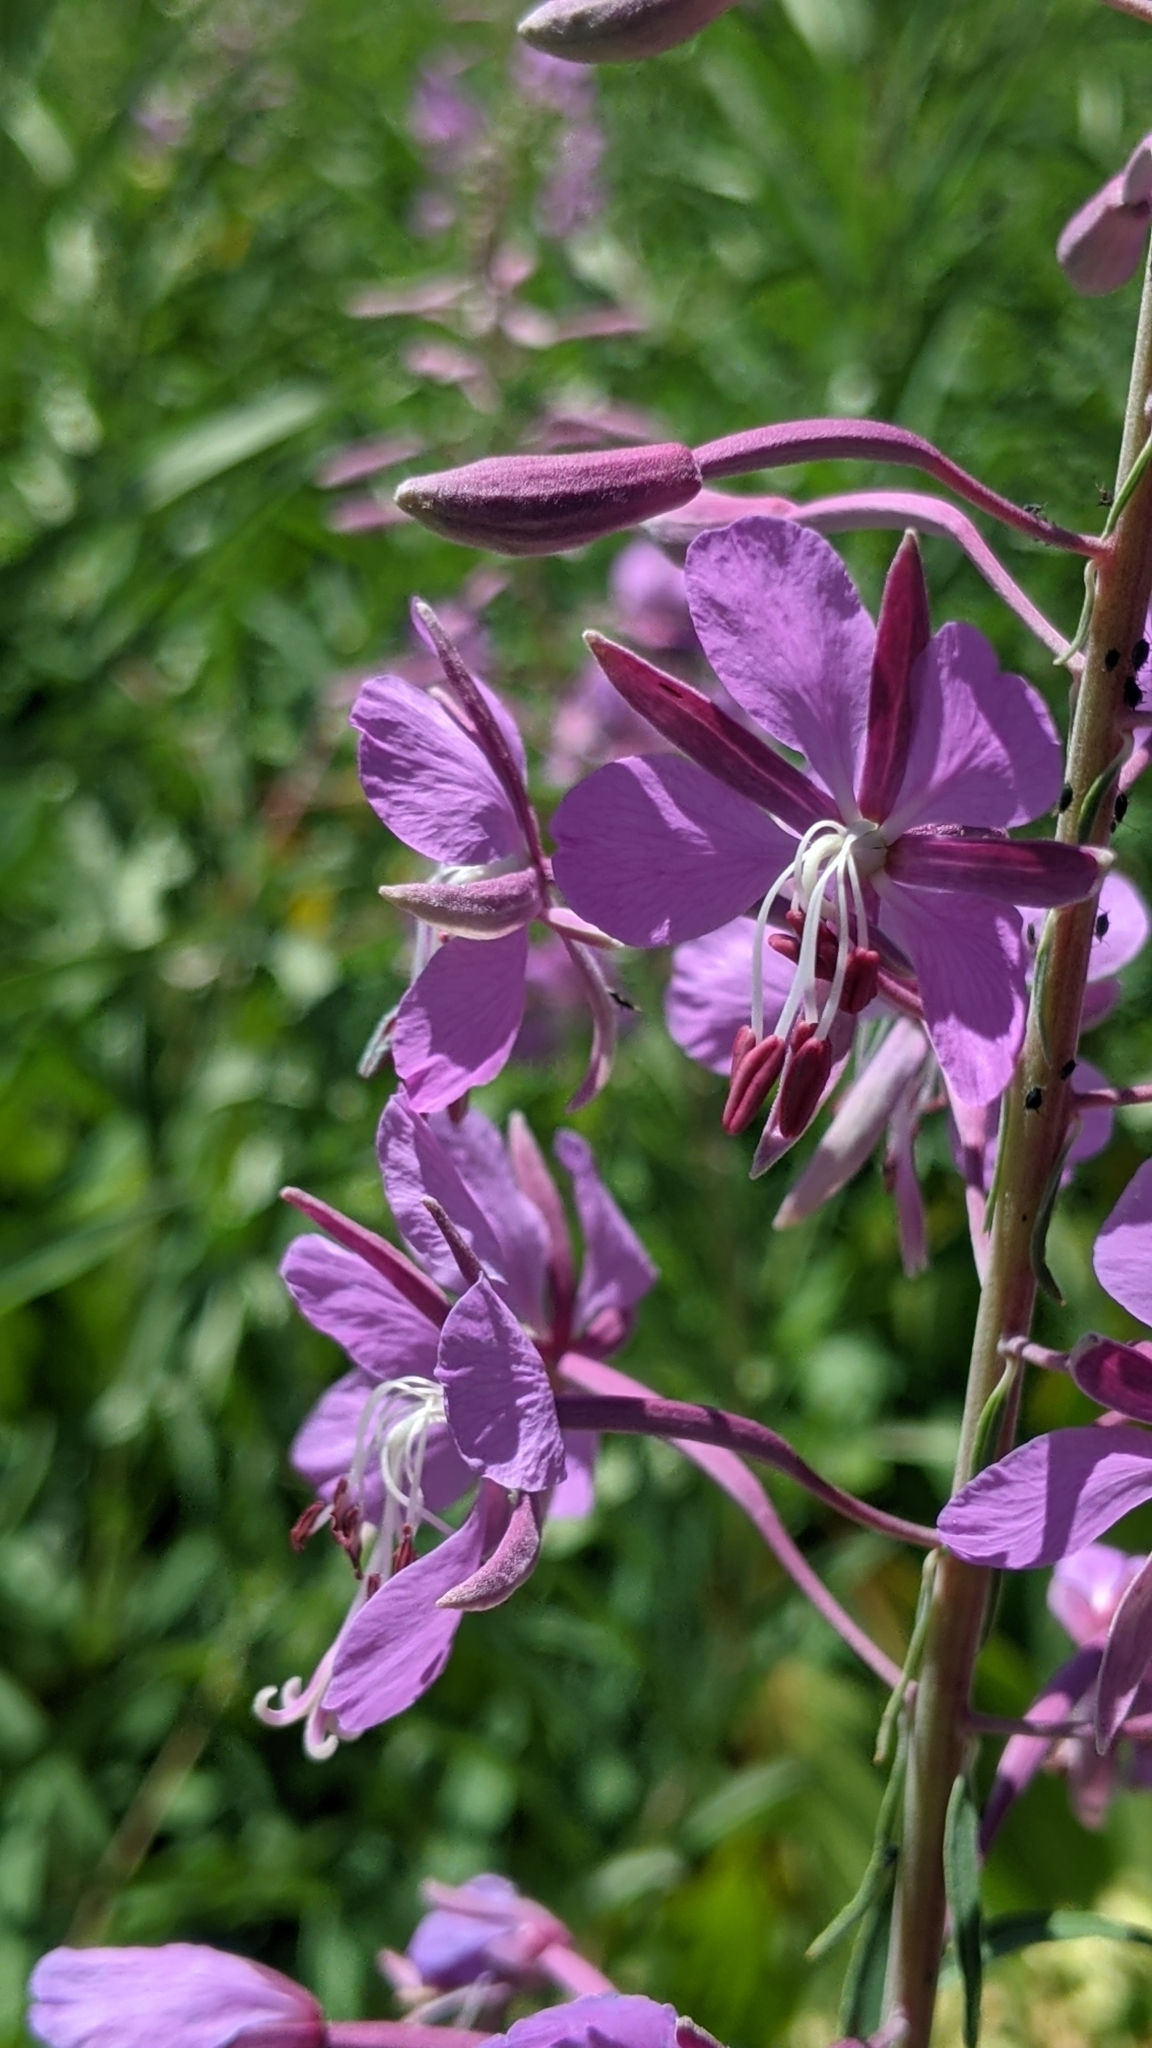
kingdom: Plantae
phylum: Tracheophyta
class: Magnoliopsida
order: Myrtales
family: Onagraceae
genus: Chamaenerion
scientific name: Chamaenerion angustifolium
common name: Fireweed
